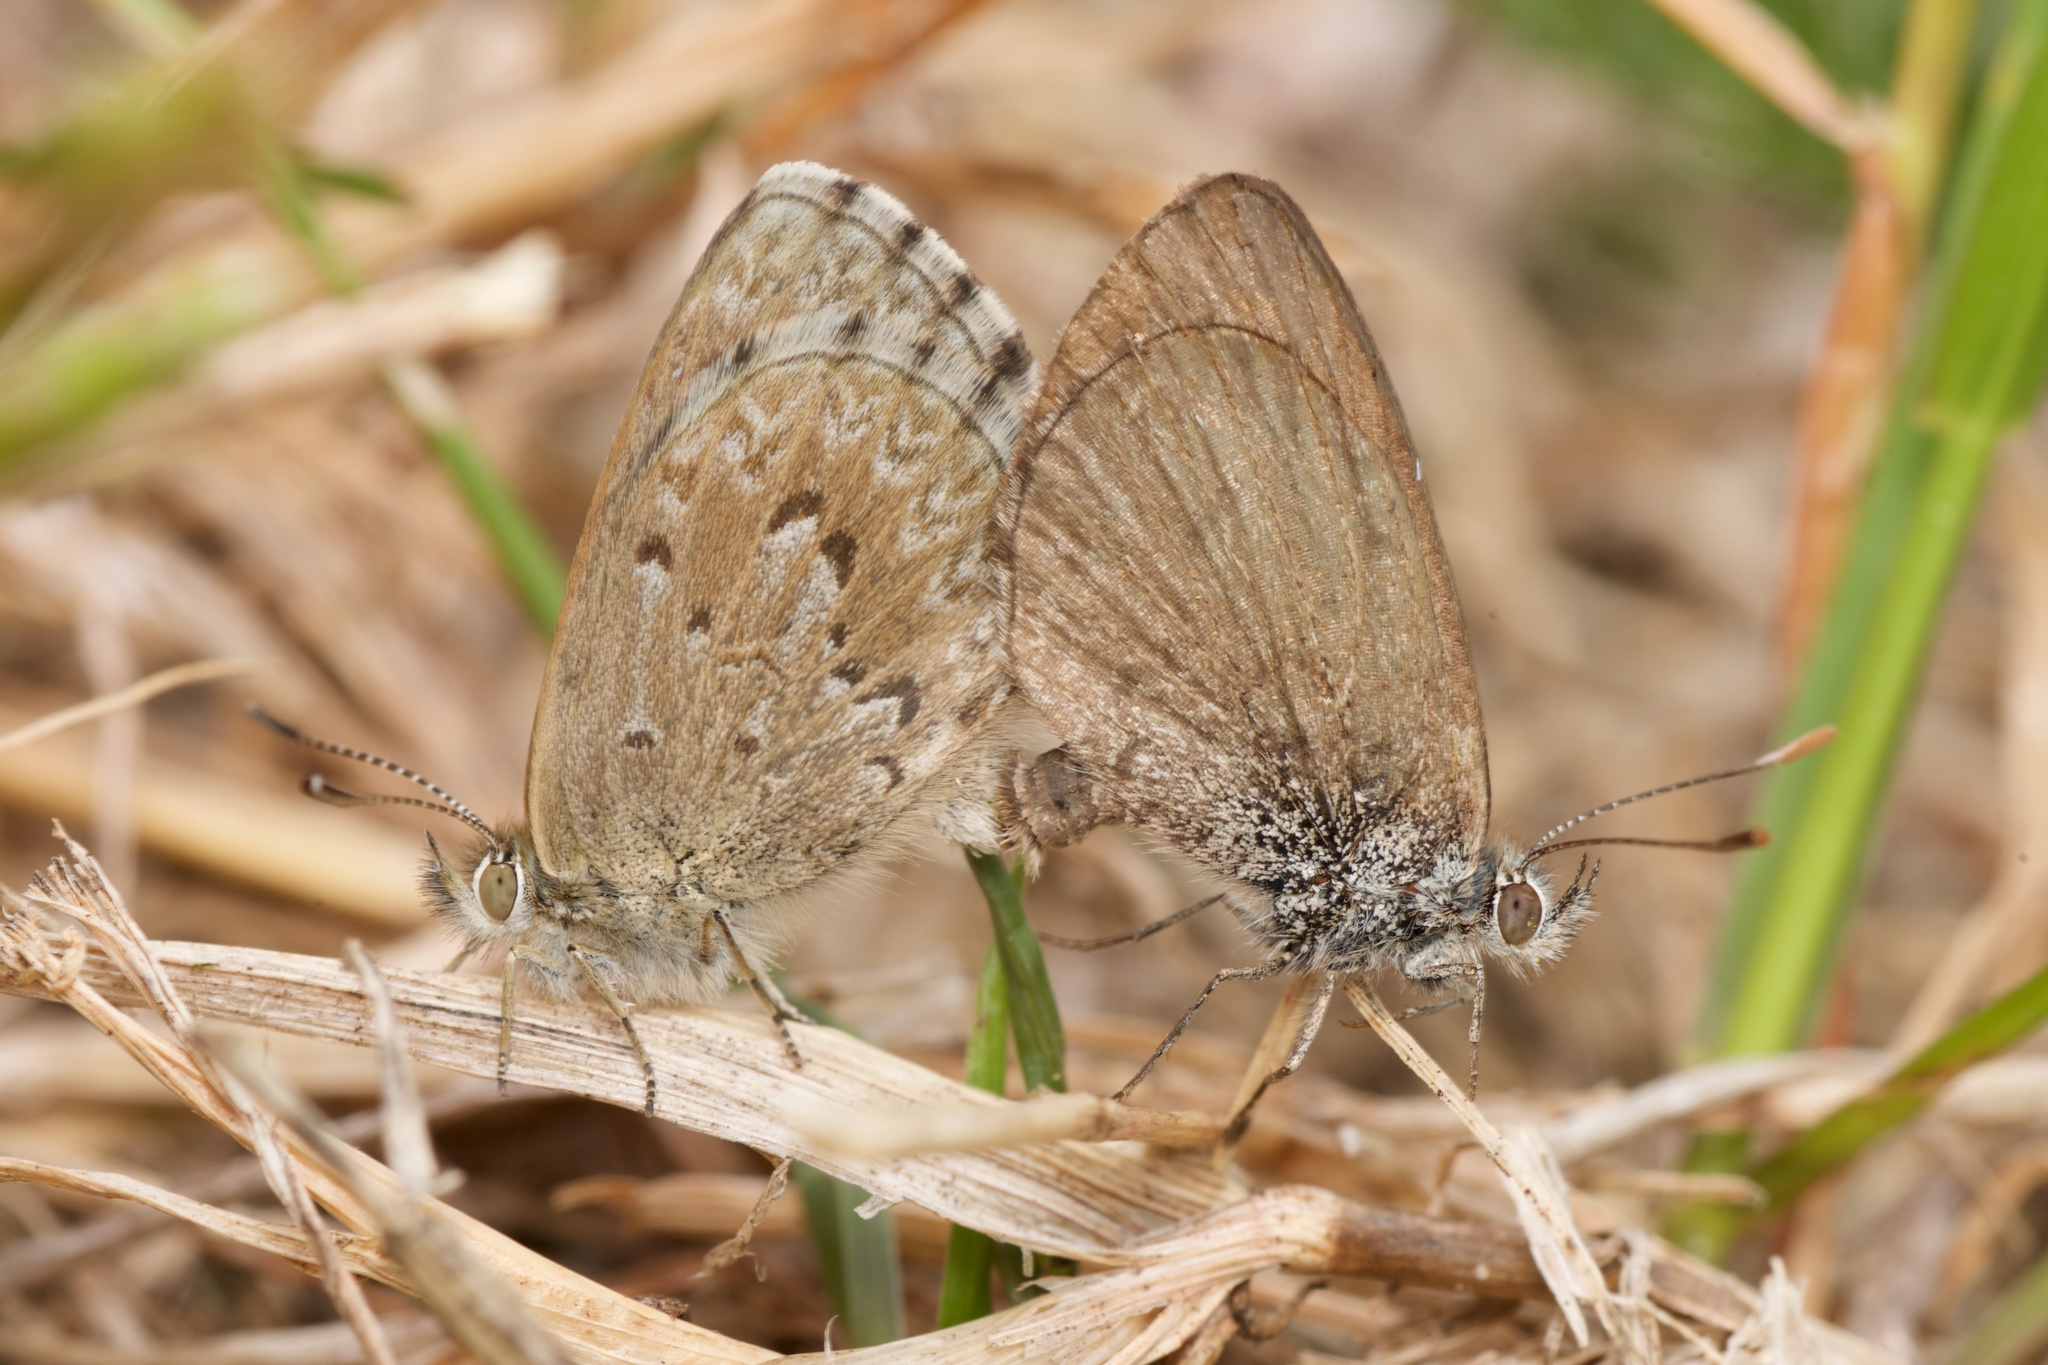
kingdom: Animalia
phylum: Arthropoda
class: Insecta
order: Lepidoptera
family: Lycaenidae
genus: Zizina
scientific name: Zizina oxleyi
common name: Southern blue
